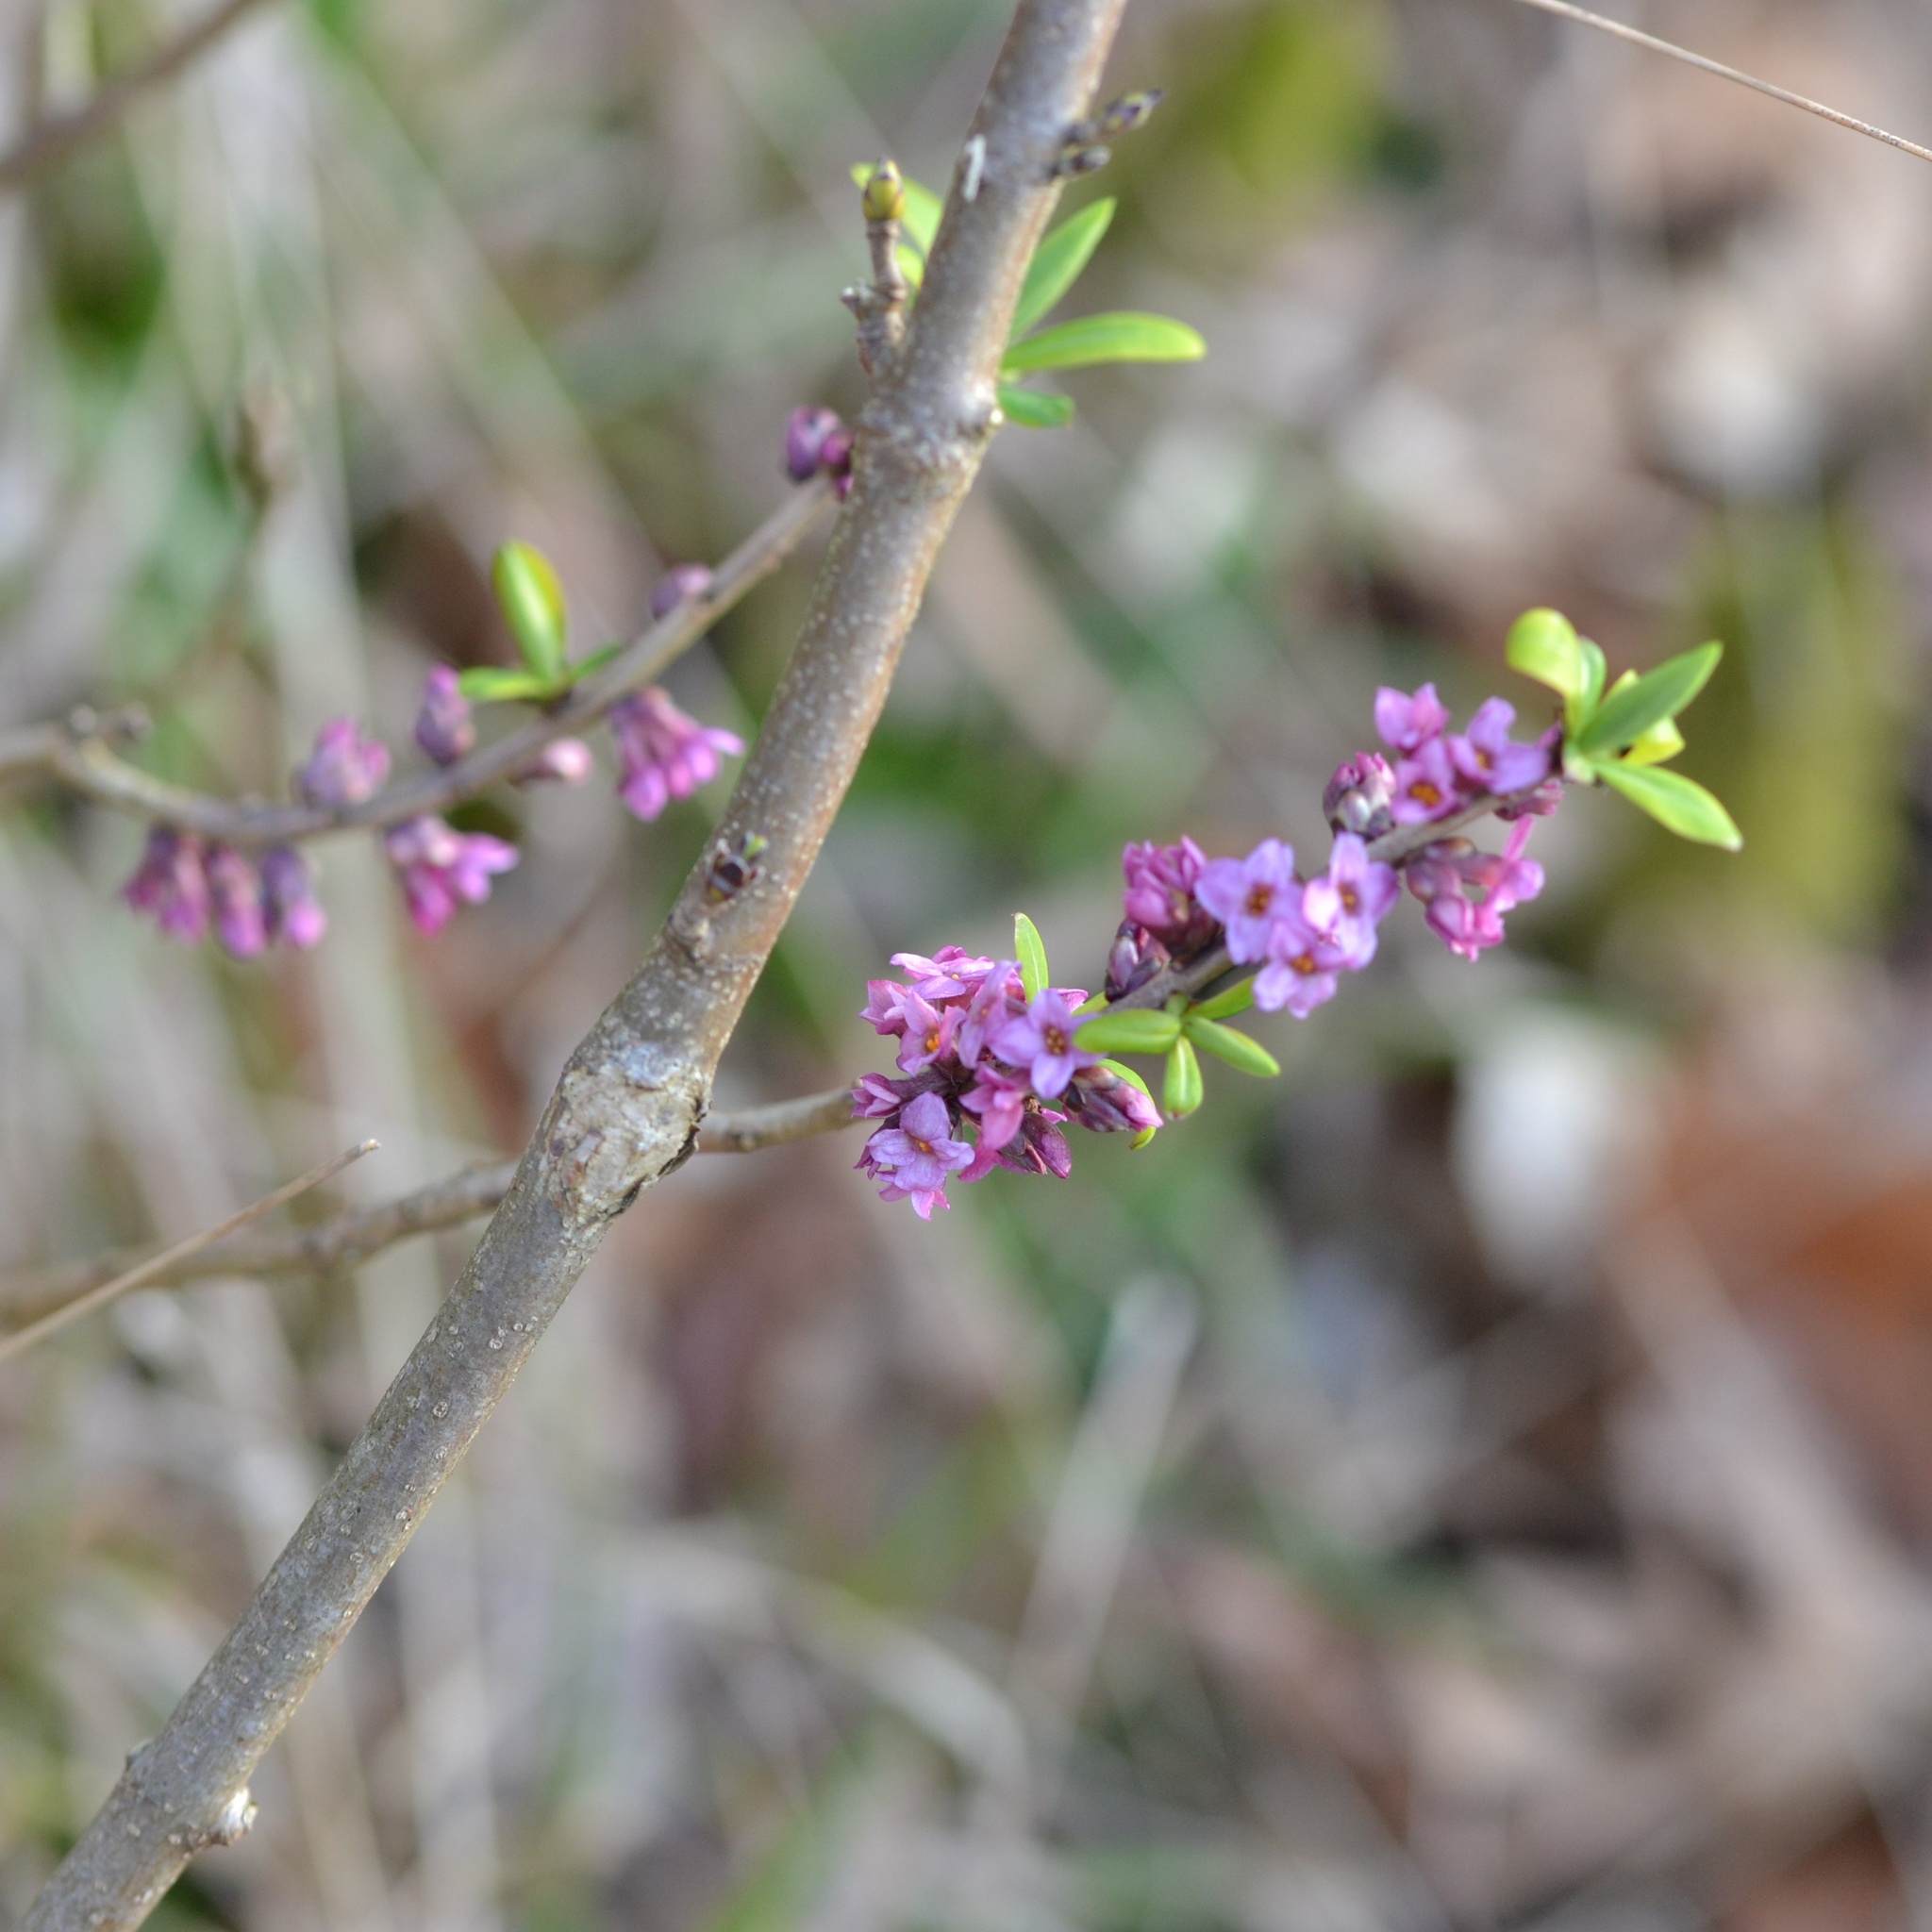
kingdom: Plantae
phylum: Tracheophyta
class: Magnoliopsida
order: Malvales
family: Thymelaeaceae
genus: Daphne
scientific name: Daphne mezereum
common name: Mezereon
